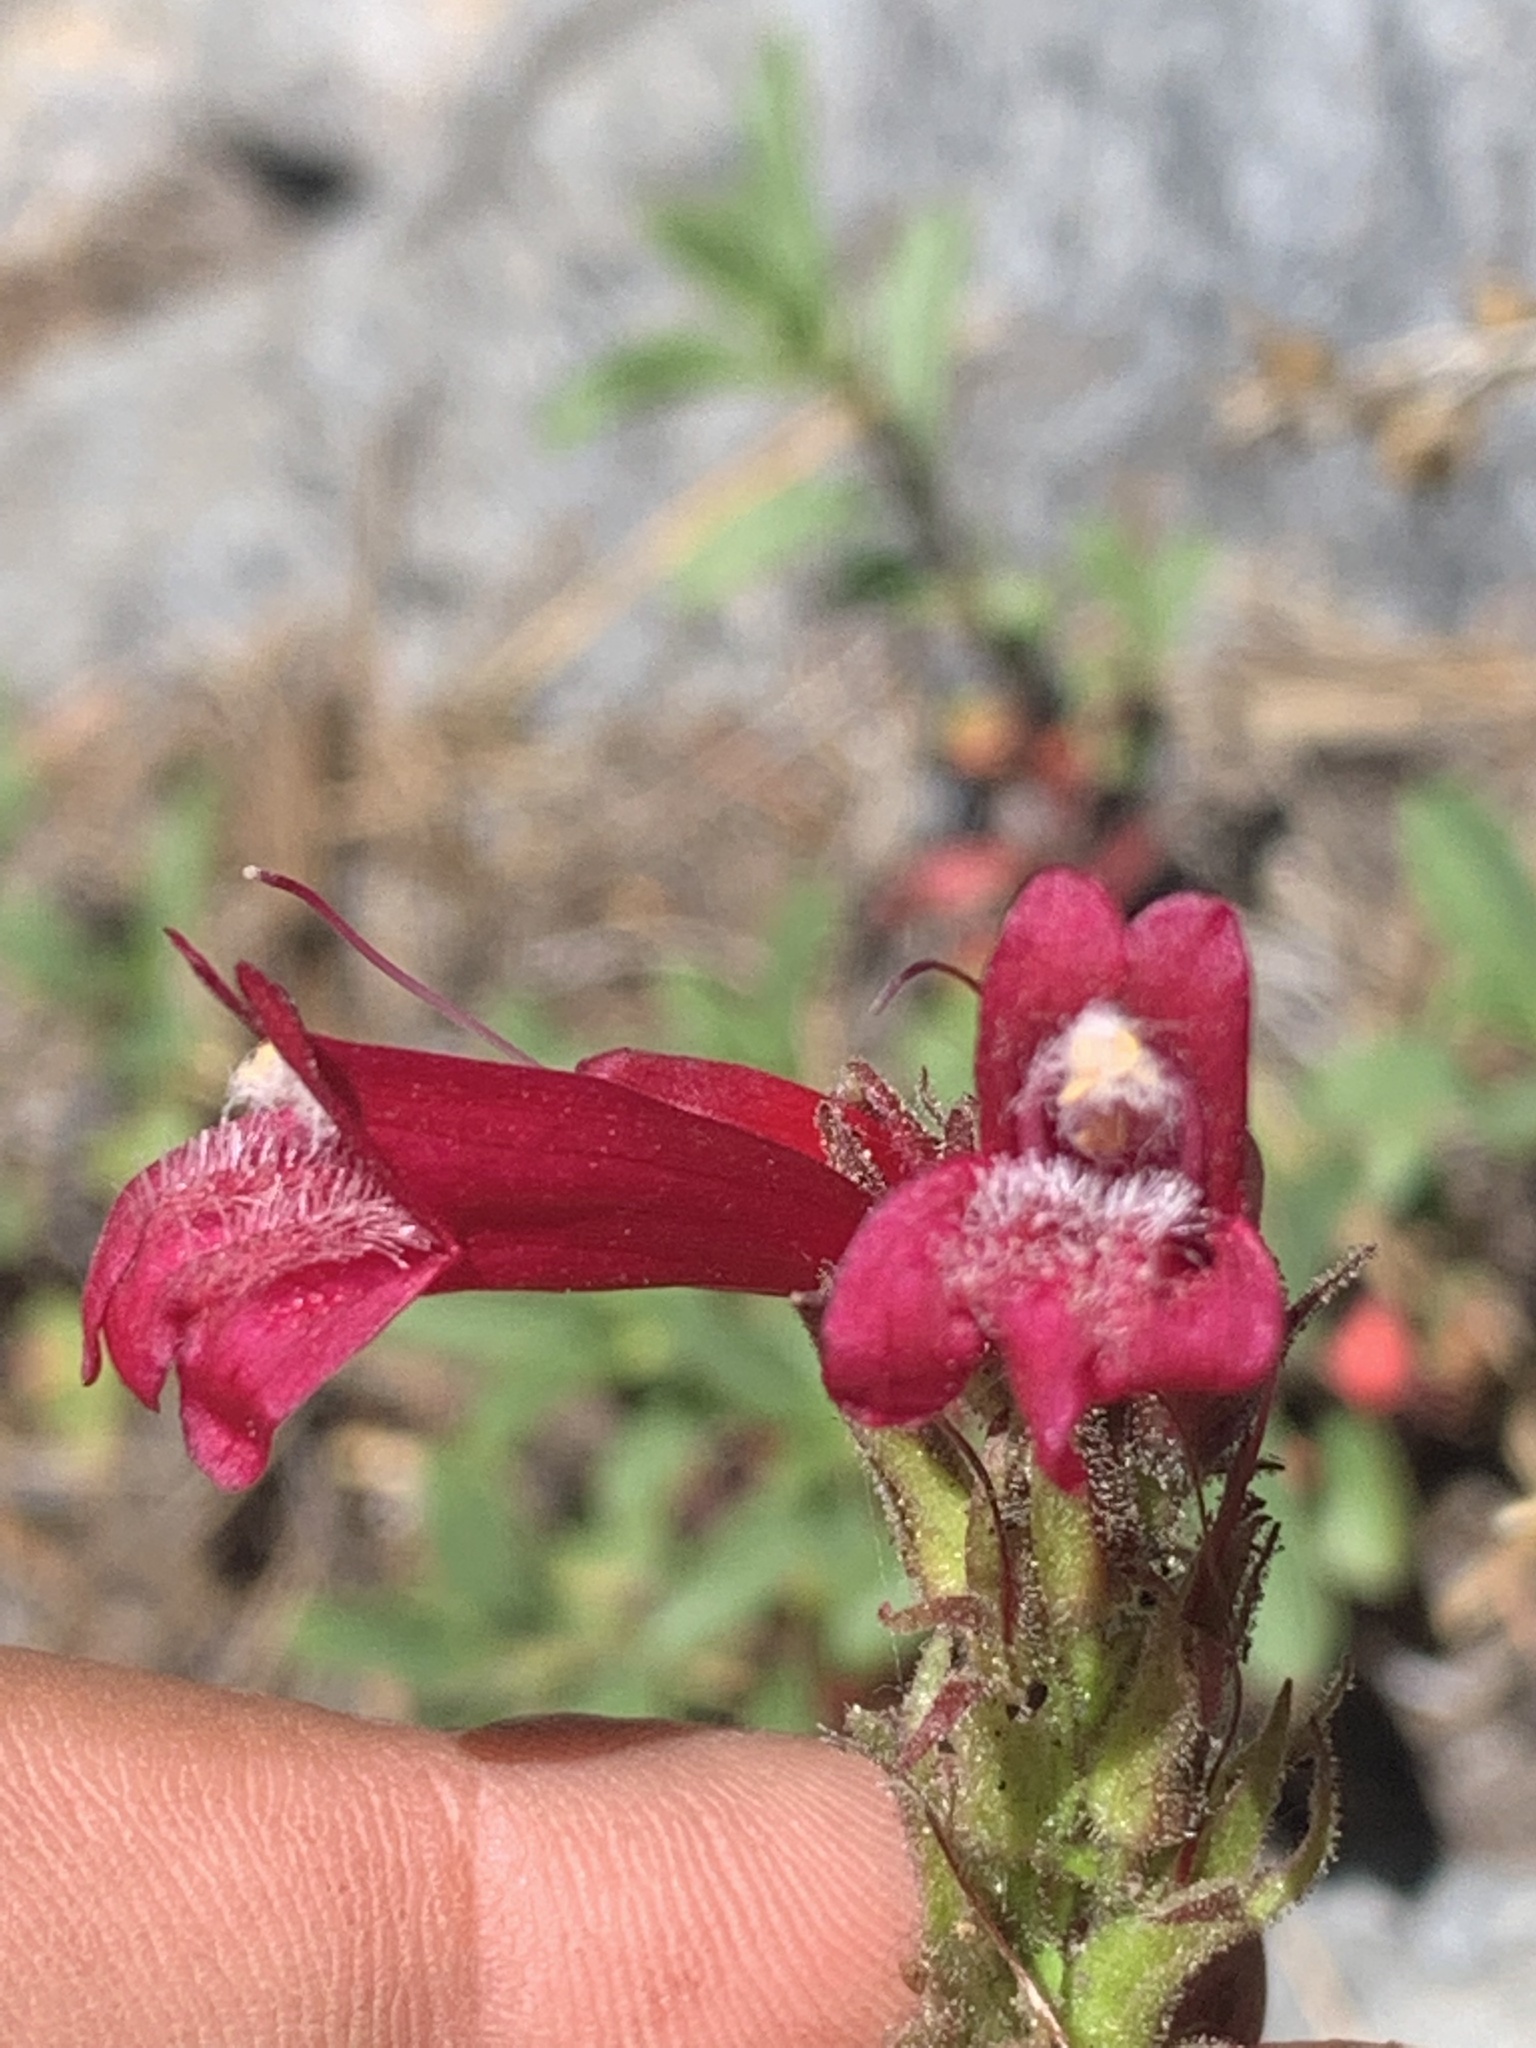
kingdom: Plantae
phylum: Tracheophyta
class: Magnoliopsida
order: Lamiales
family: Plantaginaceae
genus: Penstemon
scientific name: Penstemon newberryi
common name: Mountain-pride
